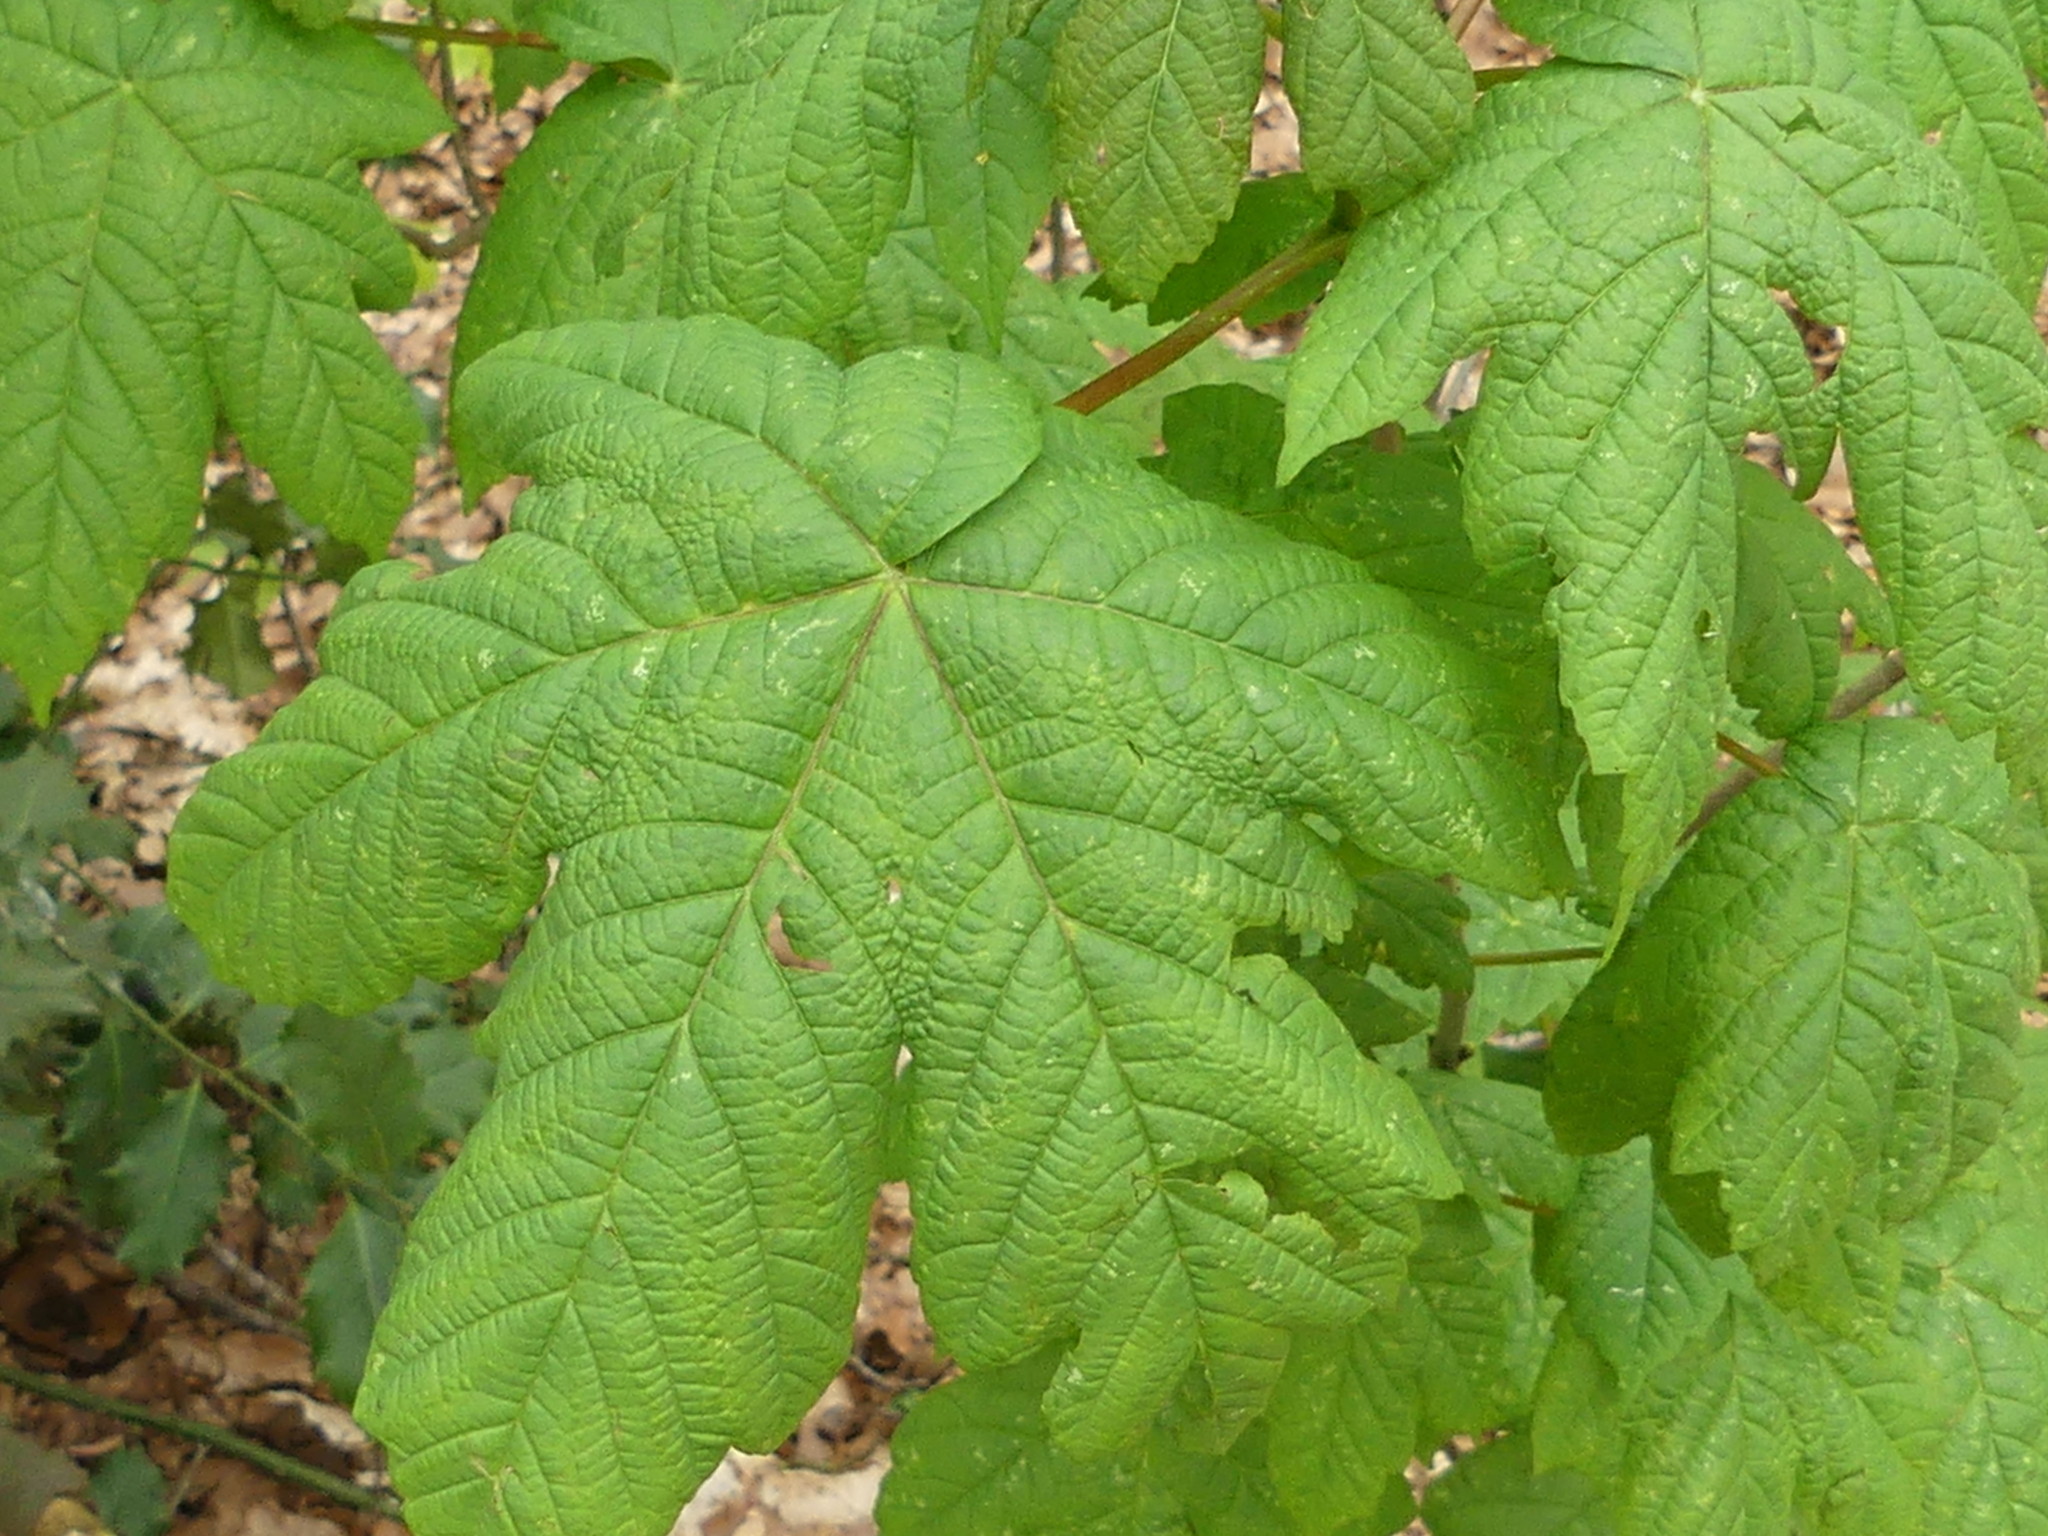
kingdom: Plantae
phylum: Tracheophyta
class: Magnoliopsida
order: Sapindales
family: Sapindaceae
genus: Acer
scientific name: Acer pseudoplatanus
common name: Sycamore
